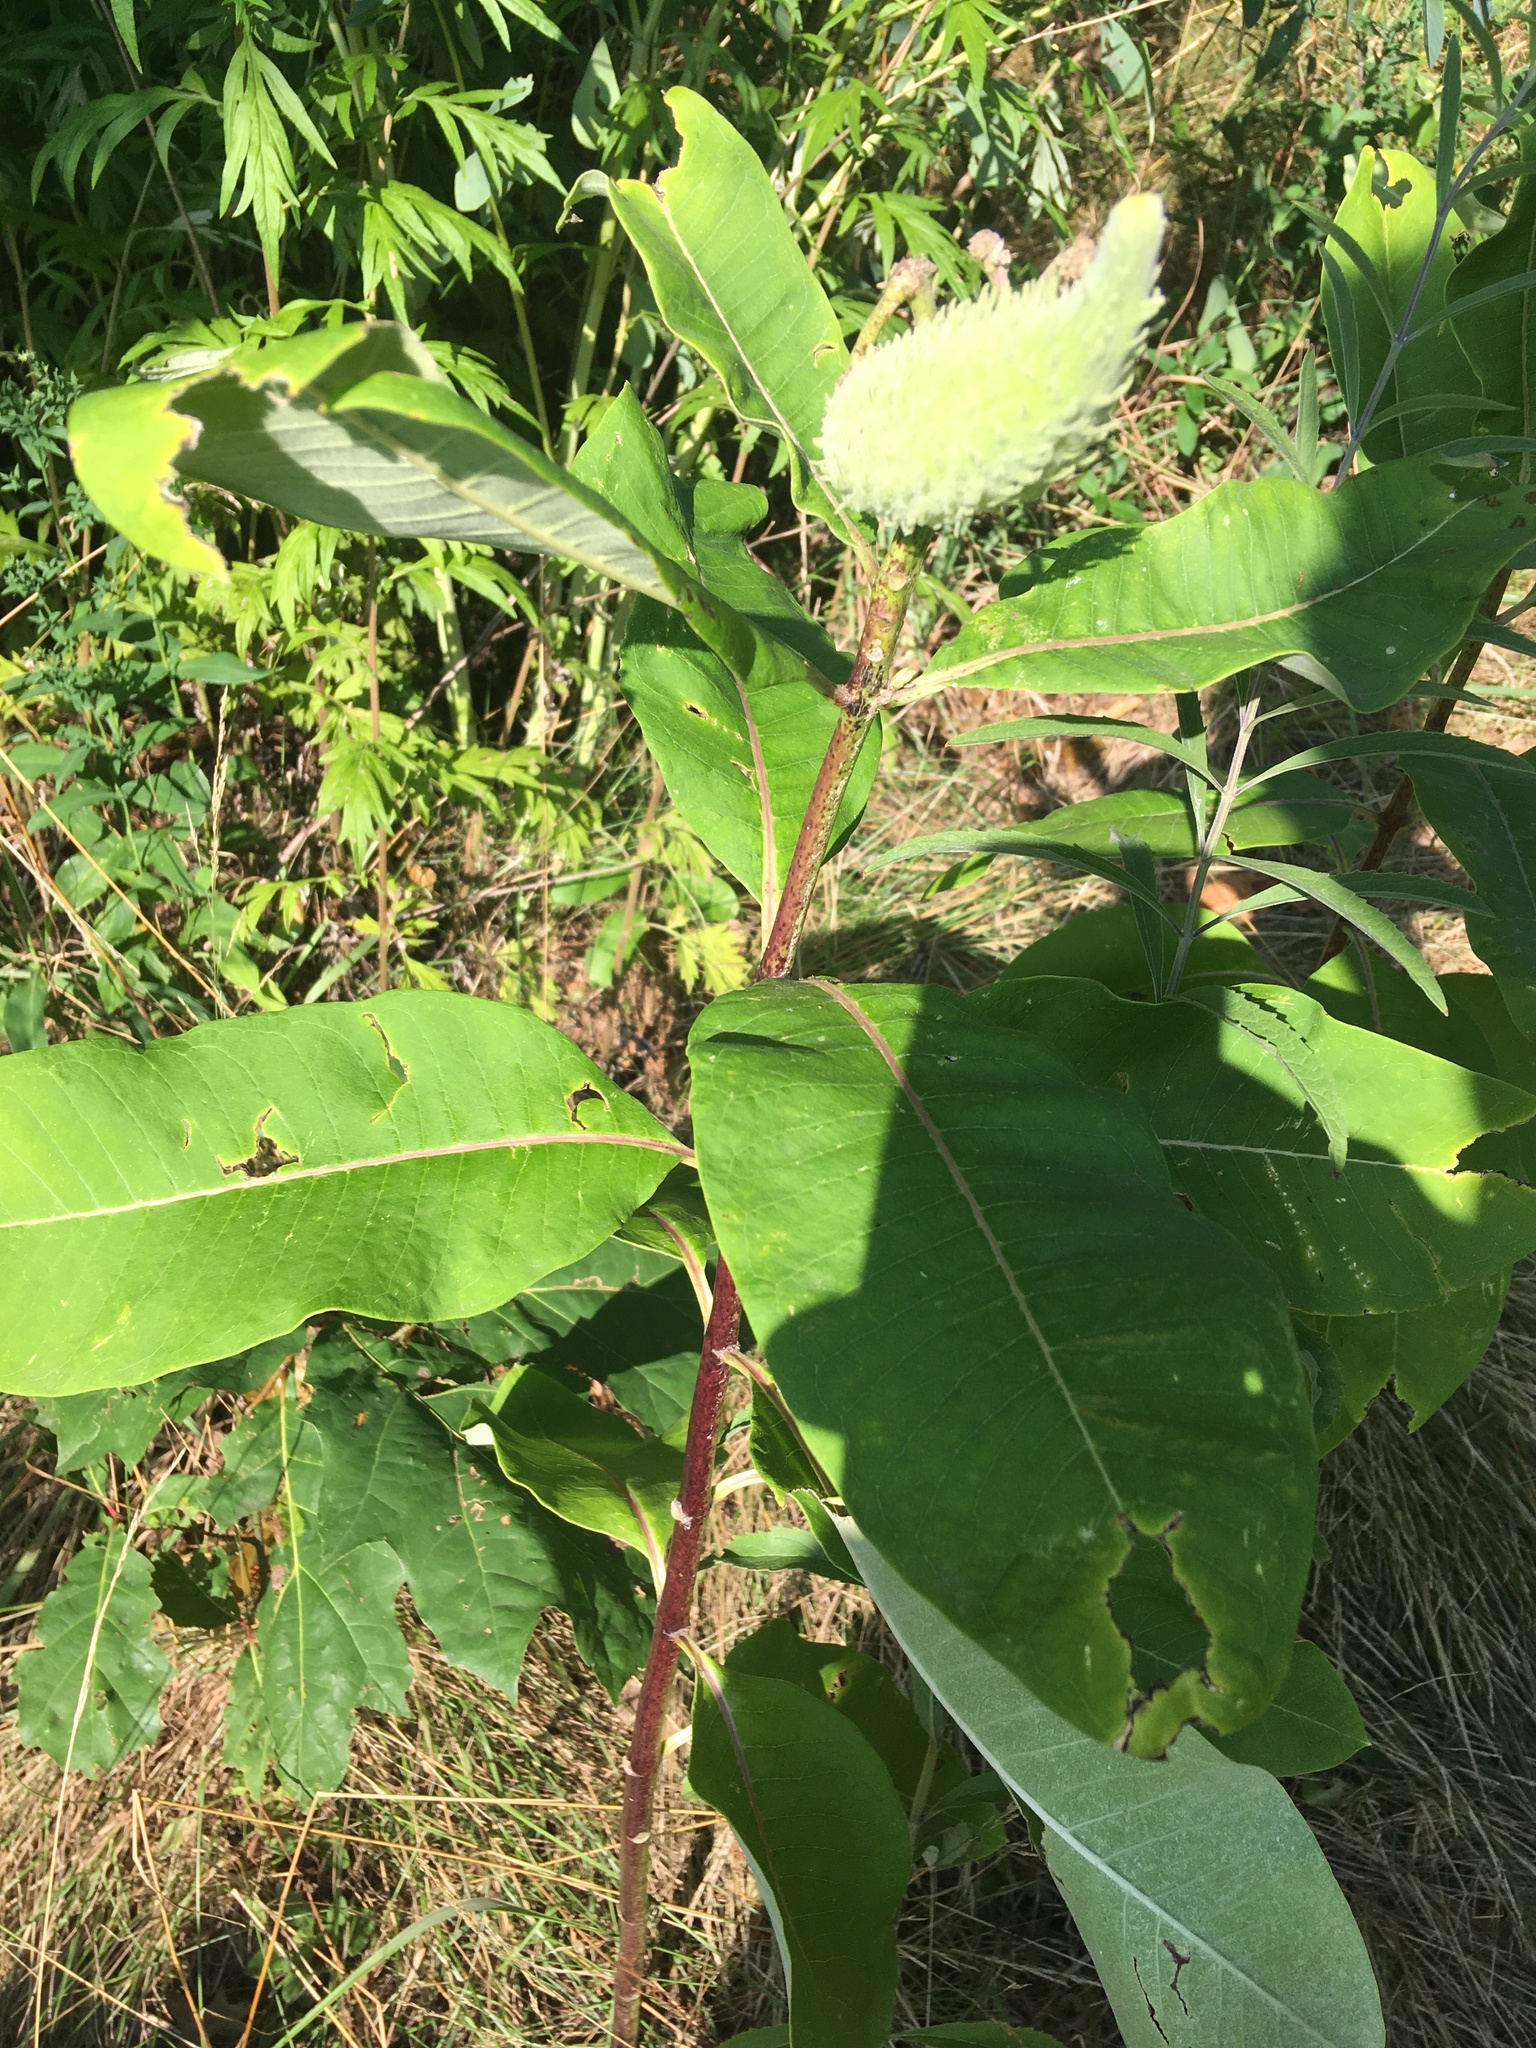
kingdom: Plantae
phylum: Tracheophyta
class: Magnoliopsida
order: Gentianales
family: Apocynaceae
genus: Asclepias
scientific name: Asclepias syriaca
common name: Common milkweed
